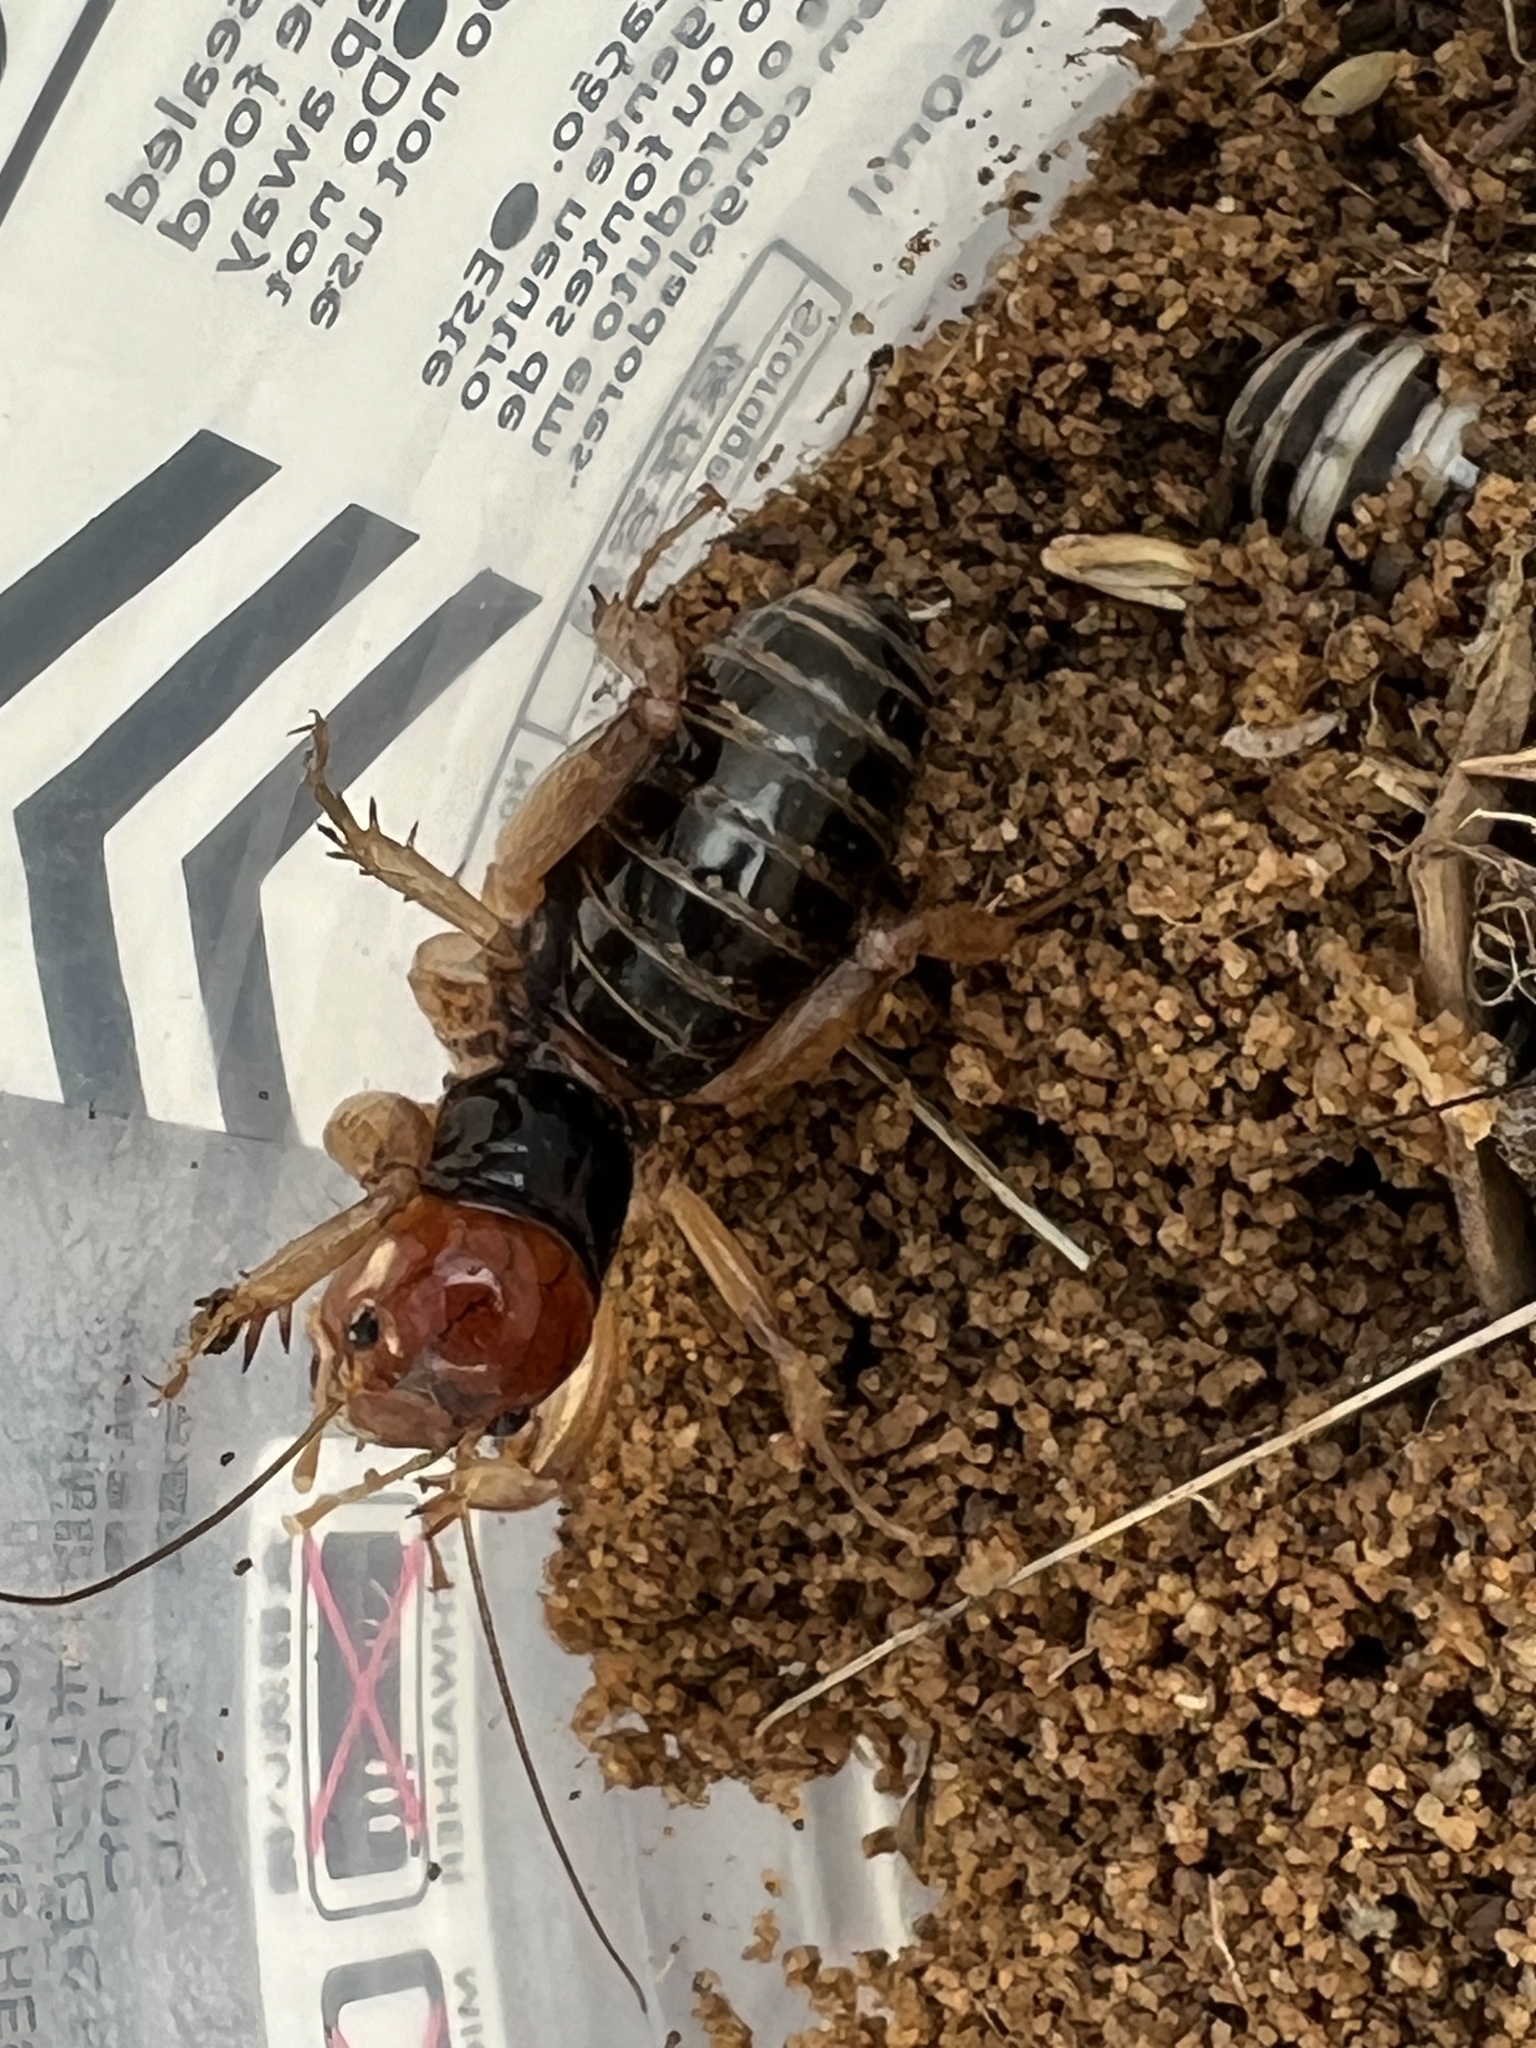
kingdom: Animalia
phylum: Arthropoda
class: Insecta
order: Orthoptera
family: Stenopelmatidae
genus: Ammopelmatus
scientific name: Ammopelmatus
